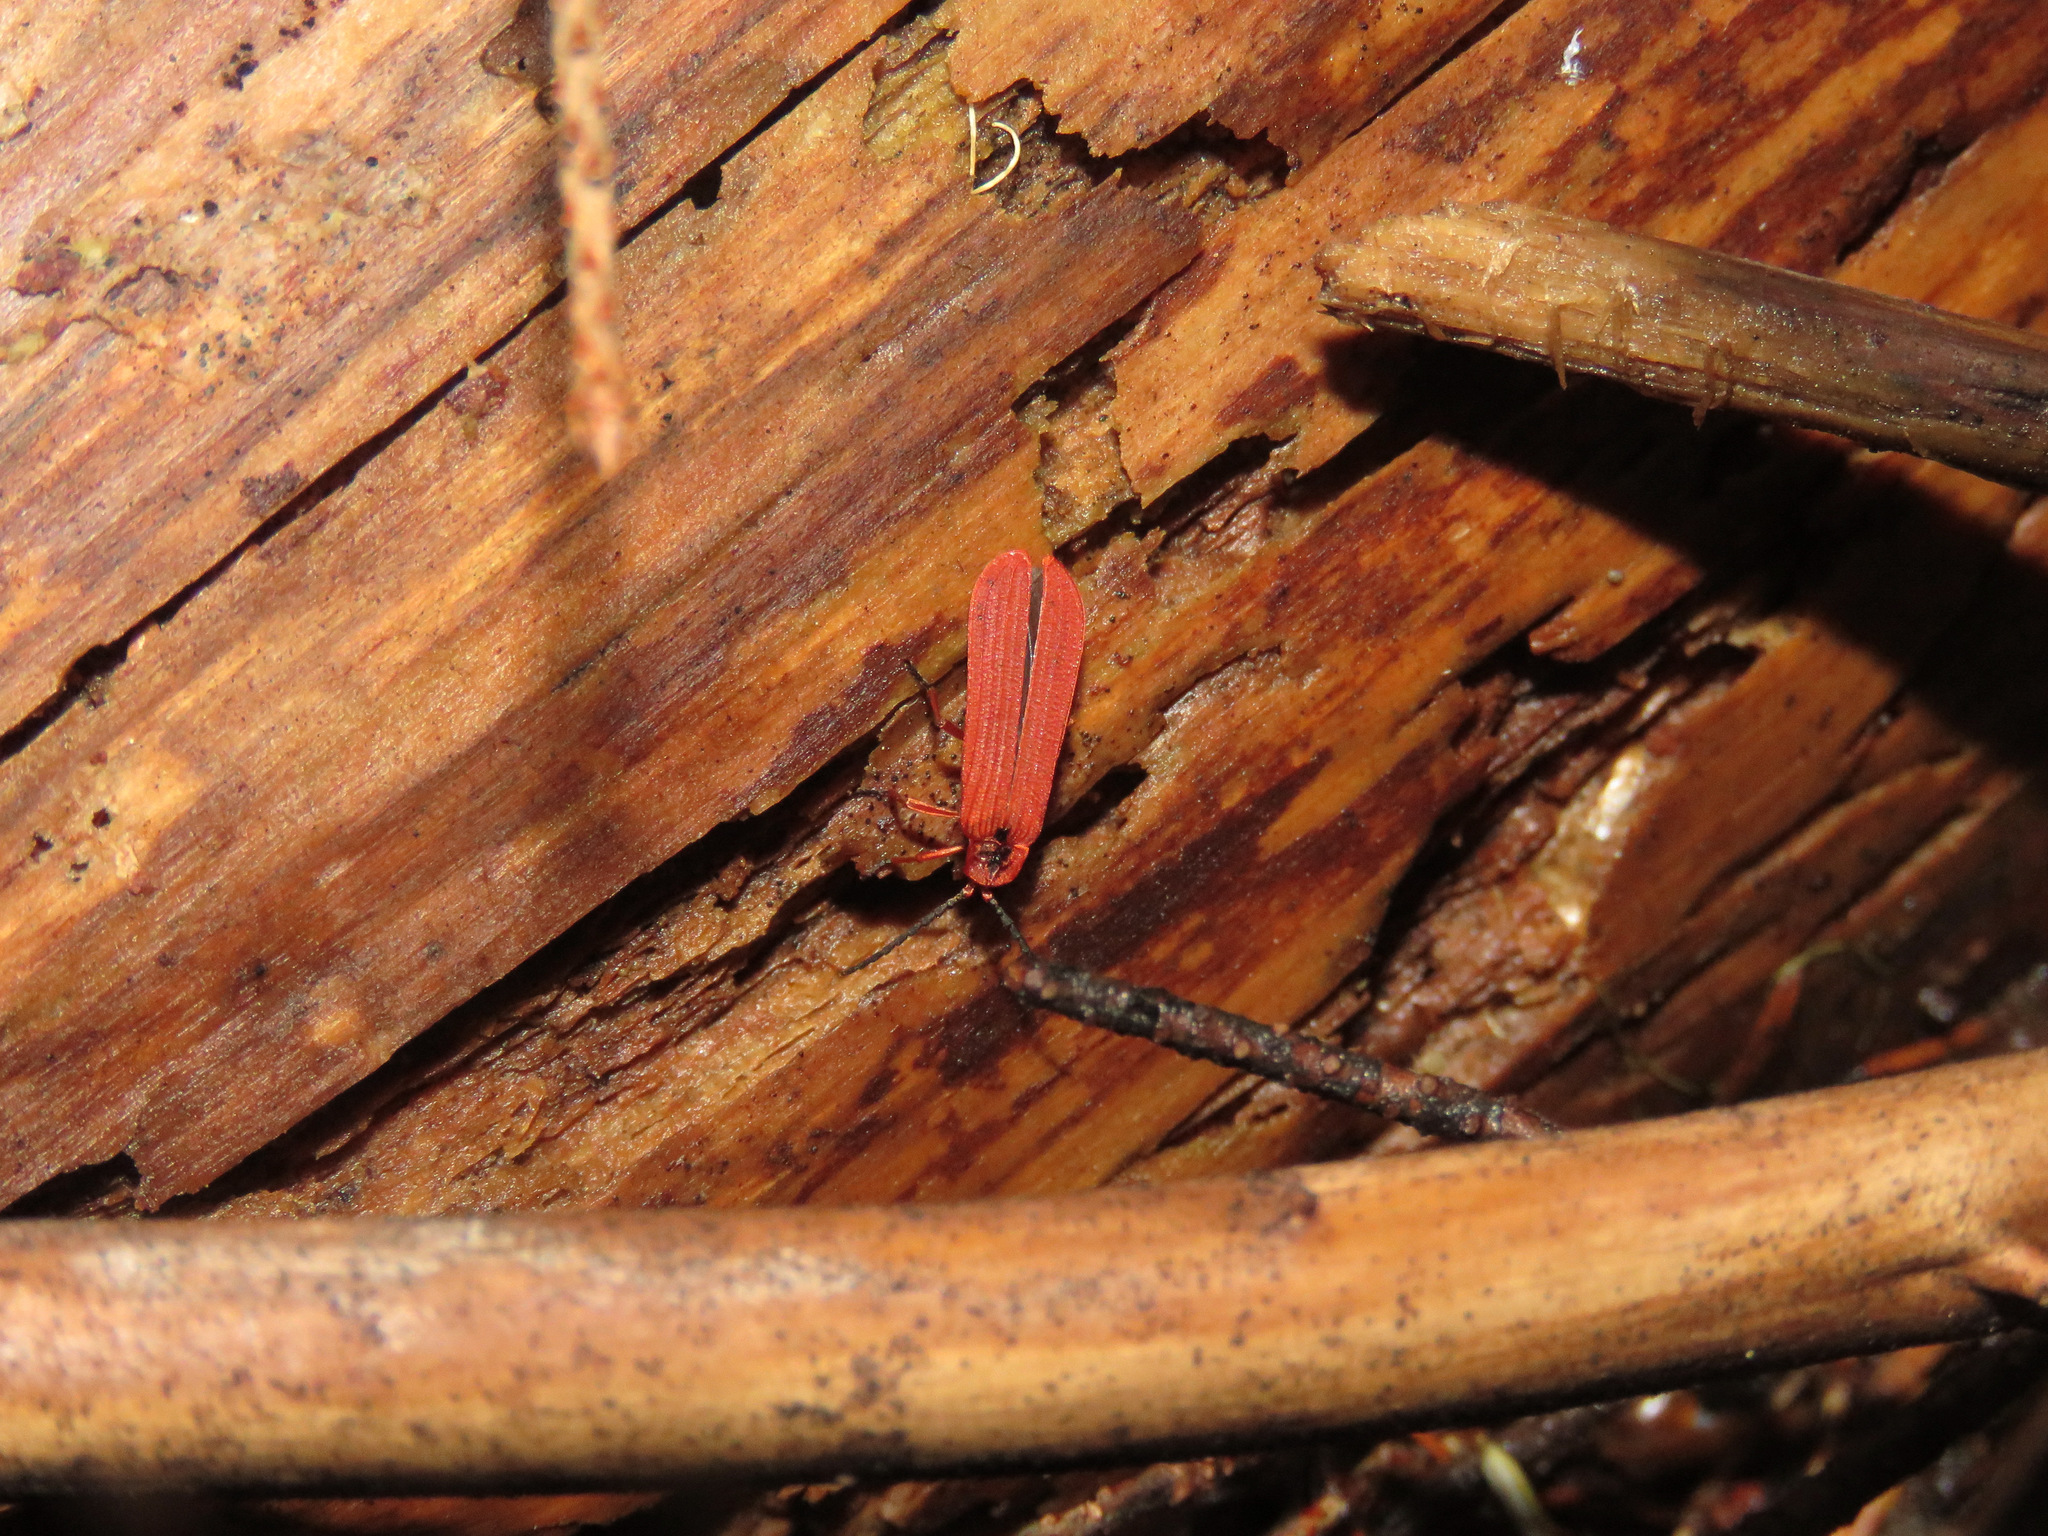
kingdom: Animalia
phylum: Arthropoda
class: Insecta
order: Coleoptera
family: Lycidae
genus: Dictyoptera
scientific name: Dictyoptera simplicipes
